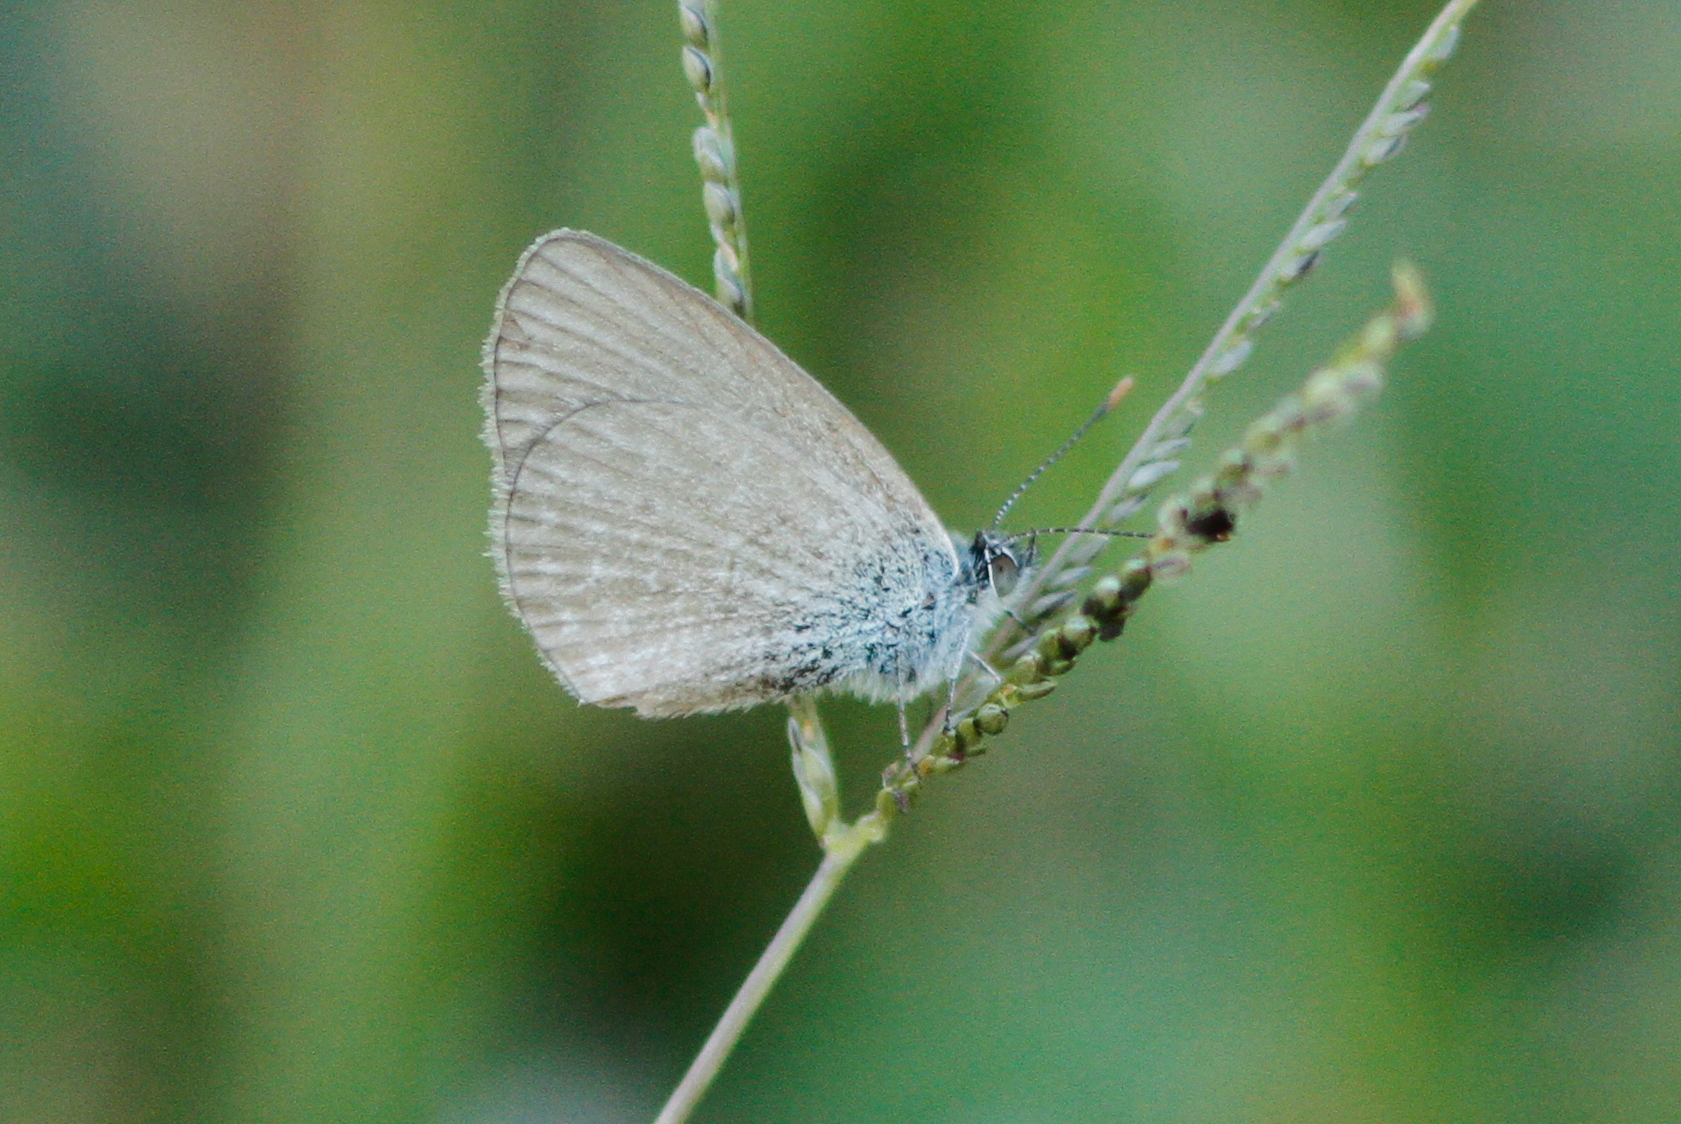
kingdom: Animalia
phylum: Arthropoda
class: Insecta
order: Lepidoptera
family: Lycaenidae
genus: Zizina
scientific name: Zizina labradus
